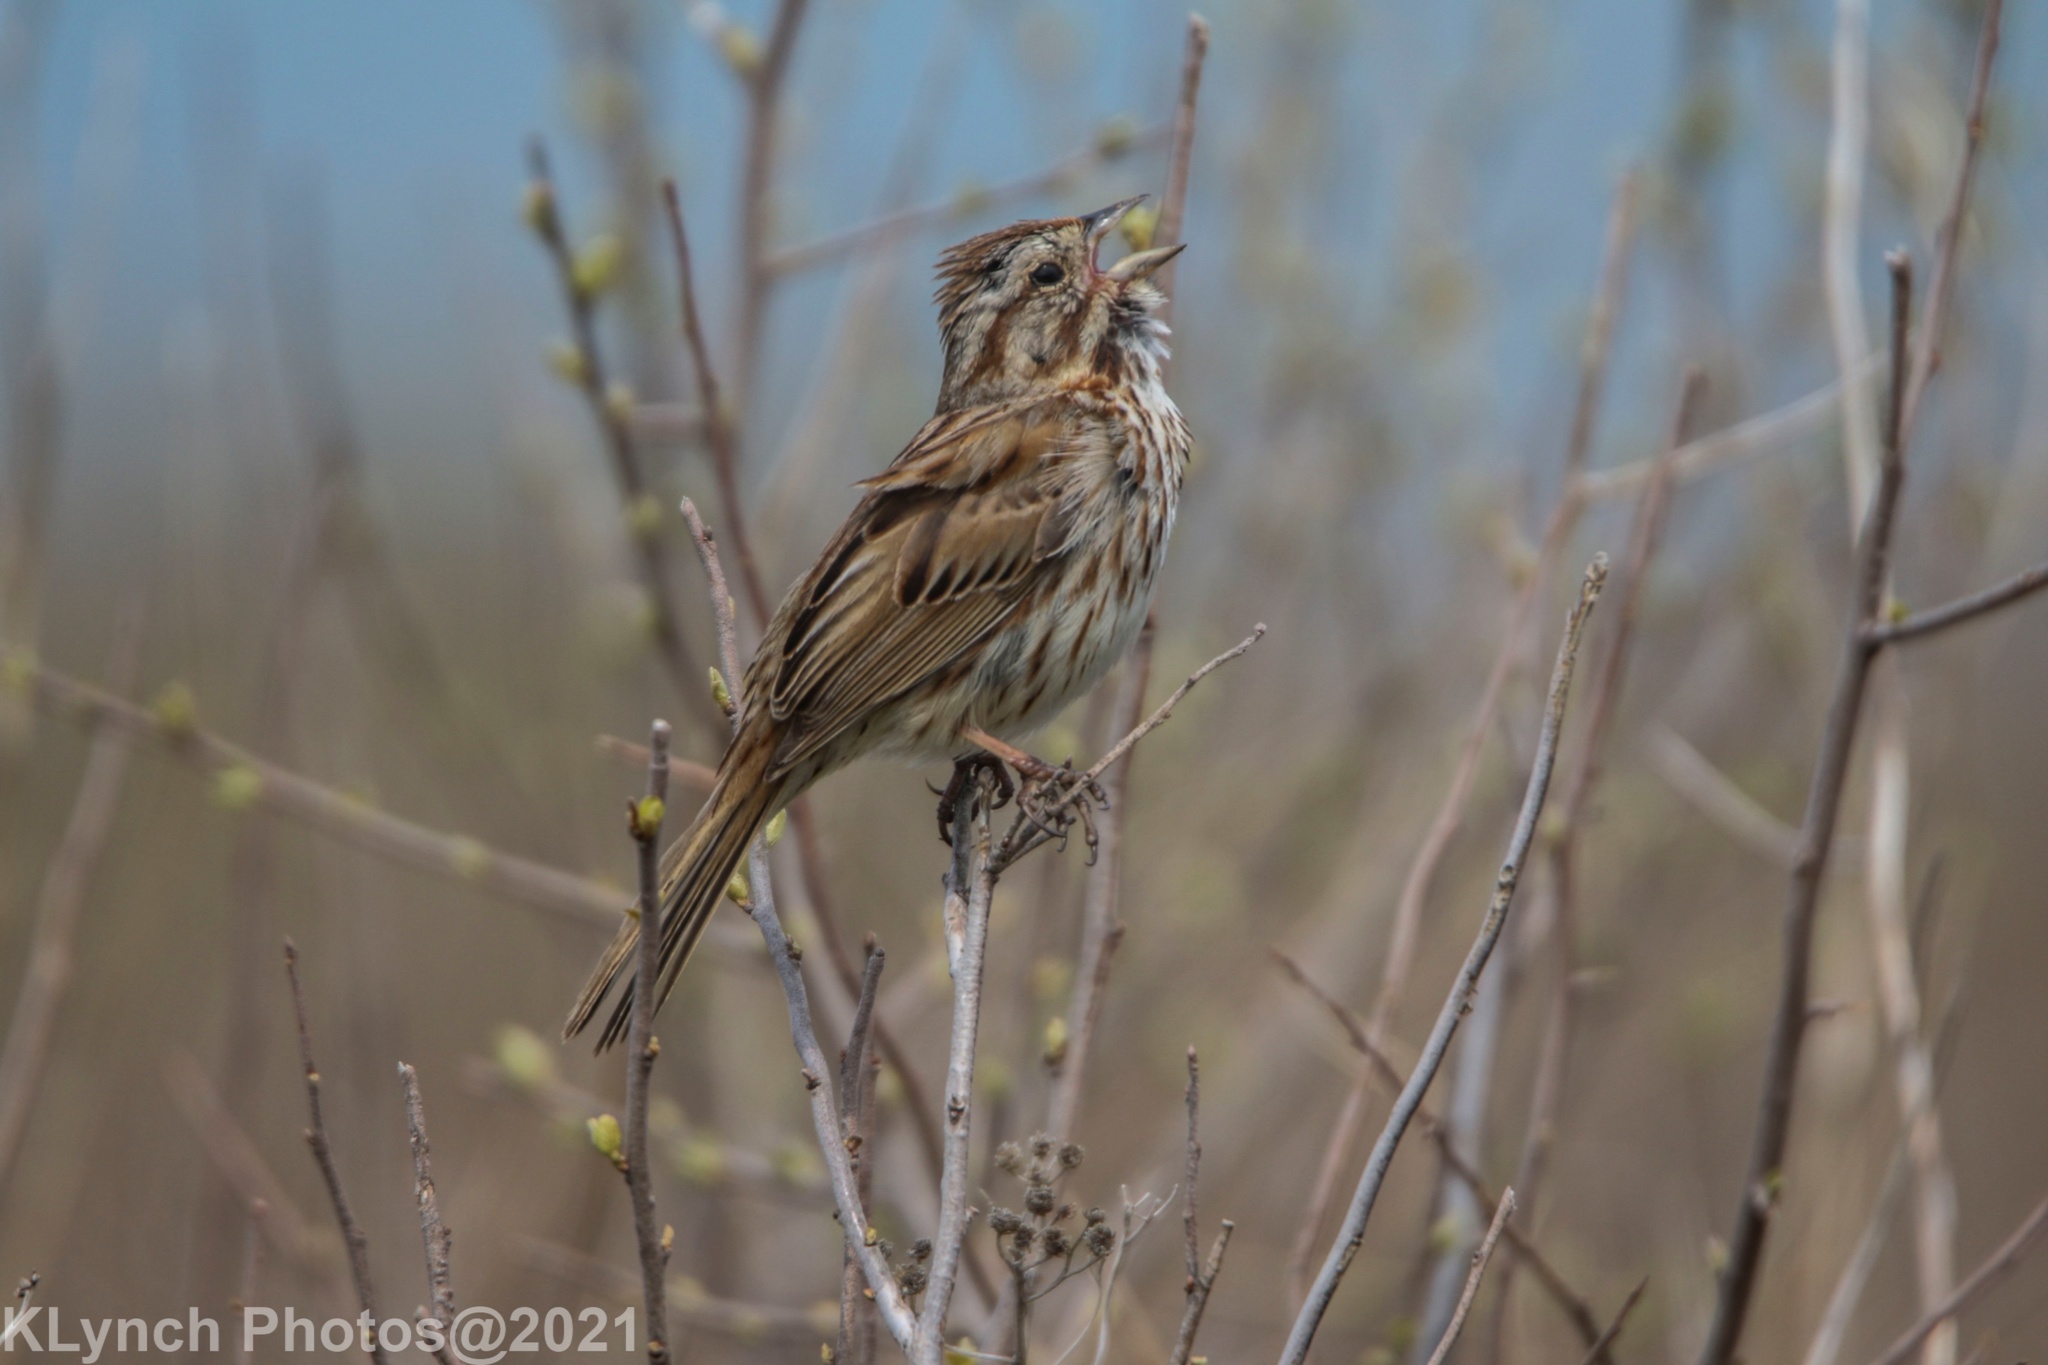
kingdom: Animalia
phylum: Chordata
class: Aves
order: Passeriformes
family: Passerellidae
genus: Melospiza
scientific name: Melospiza melodia
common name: Song sparrow
